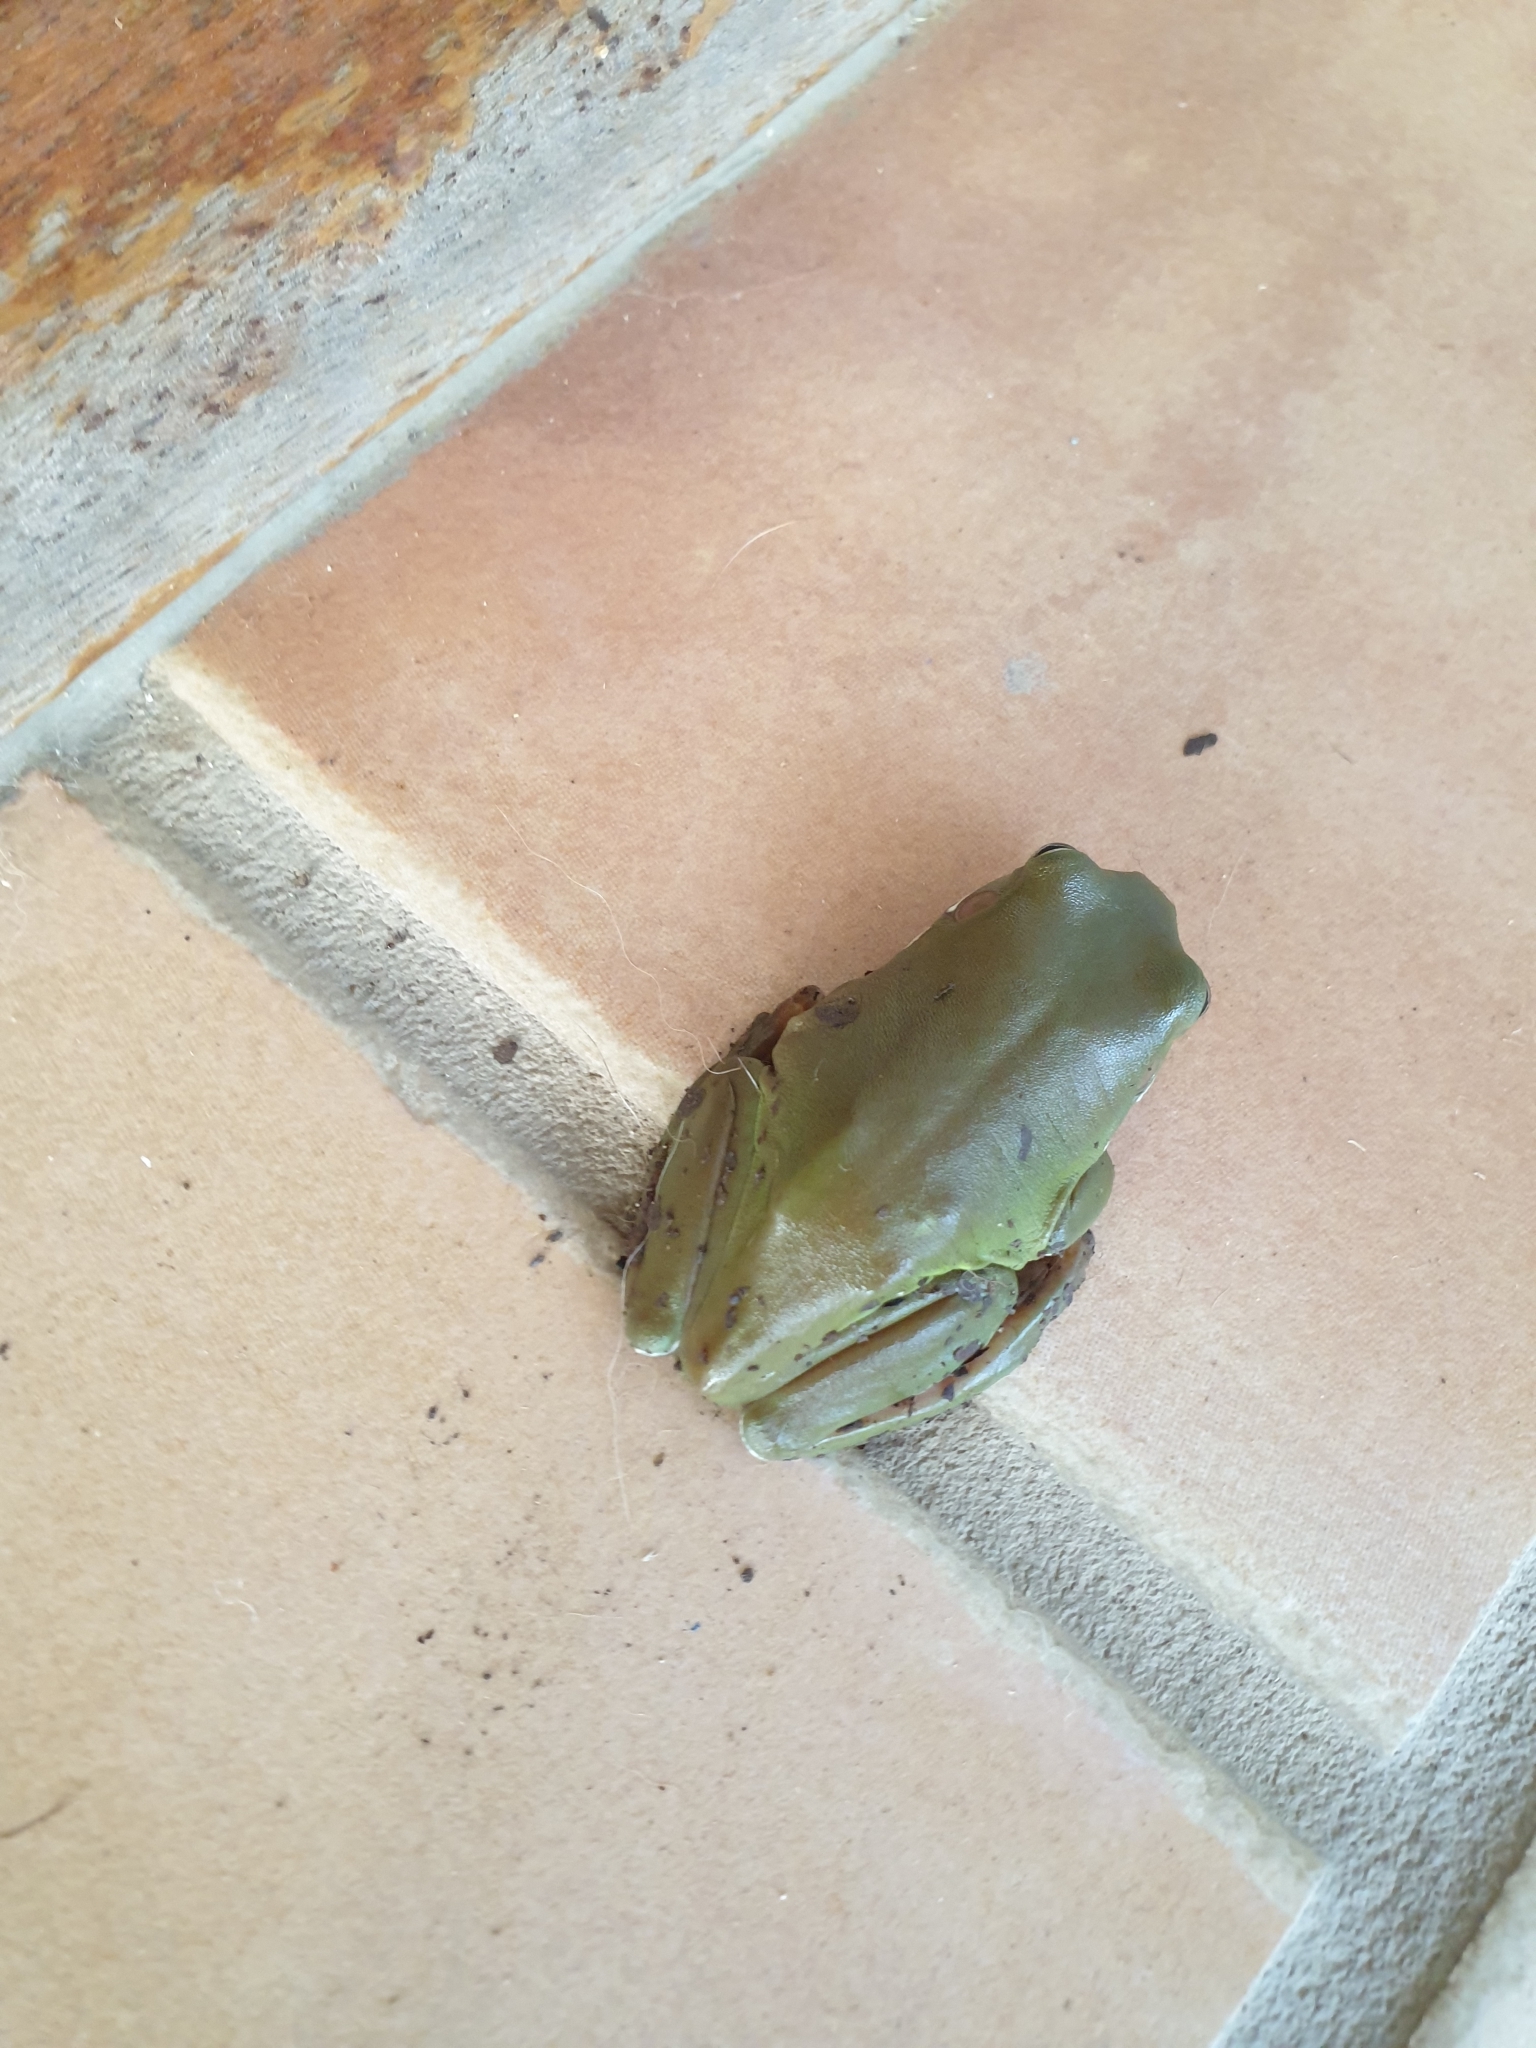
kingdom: Animalia
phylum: Chordata
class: Amphibia
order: Anura
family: Pelodryadidae
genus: Ranoidea
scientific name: Ranoidea caerulea
